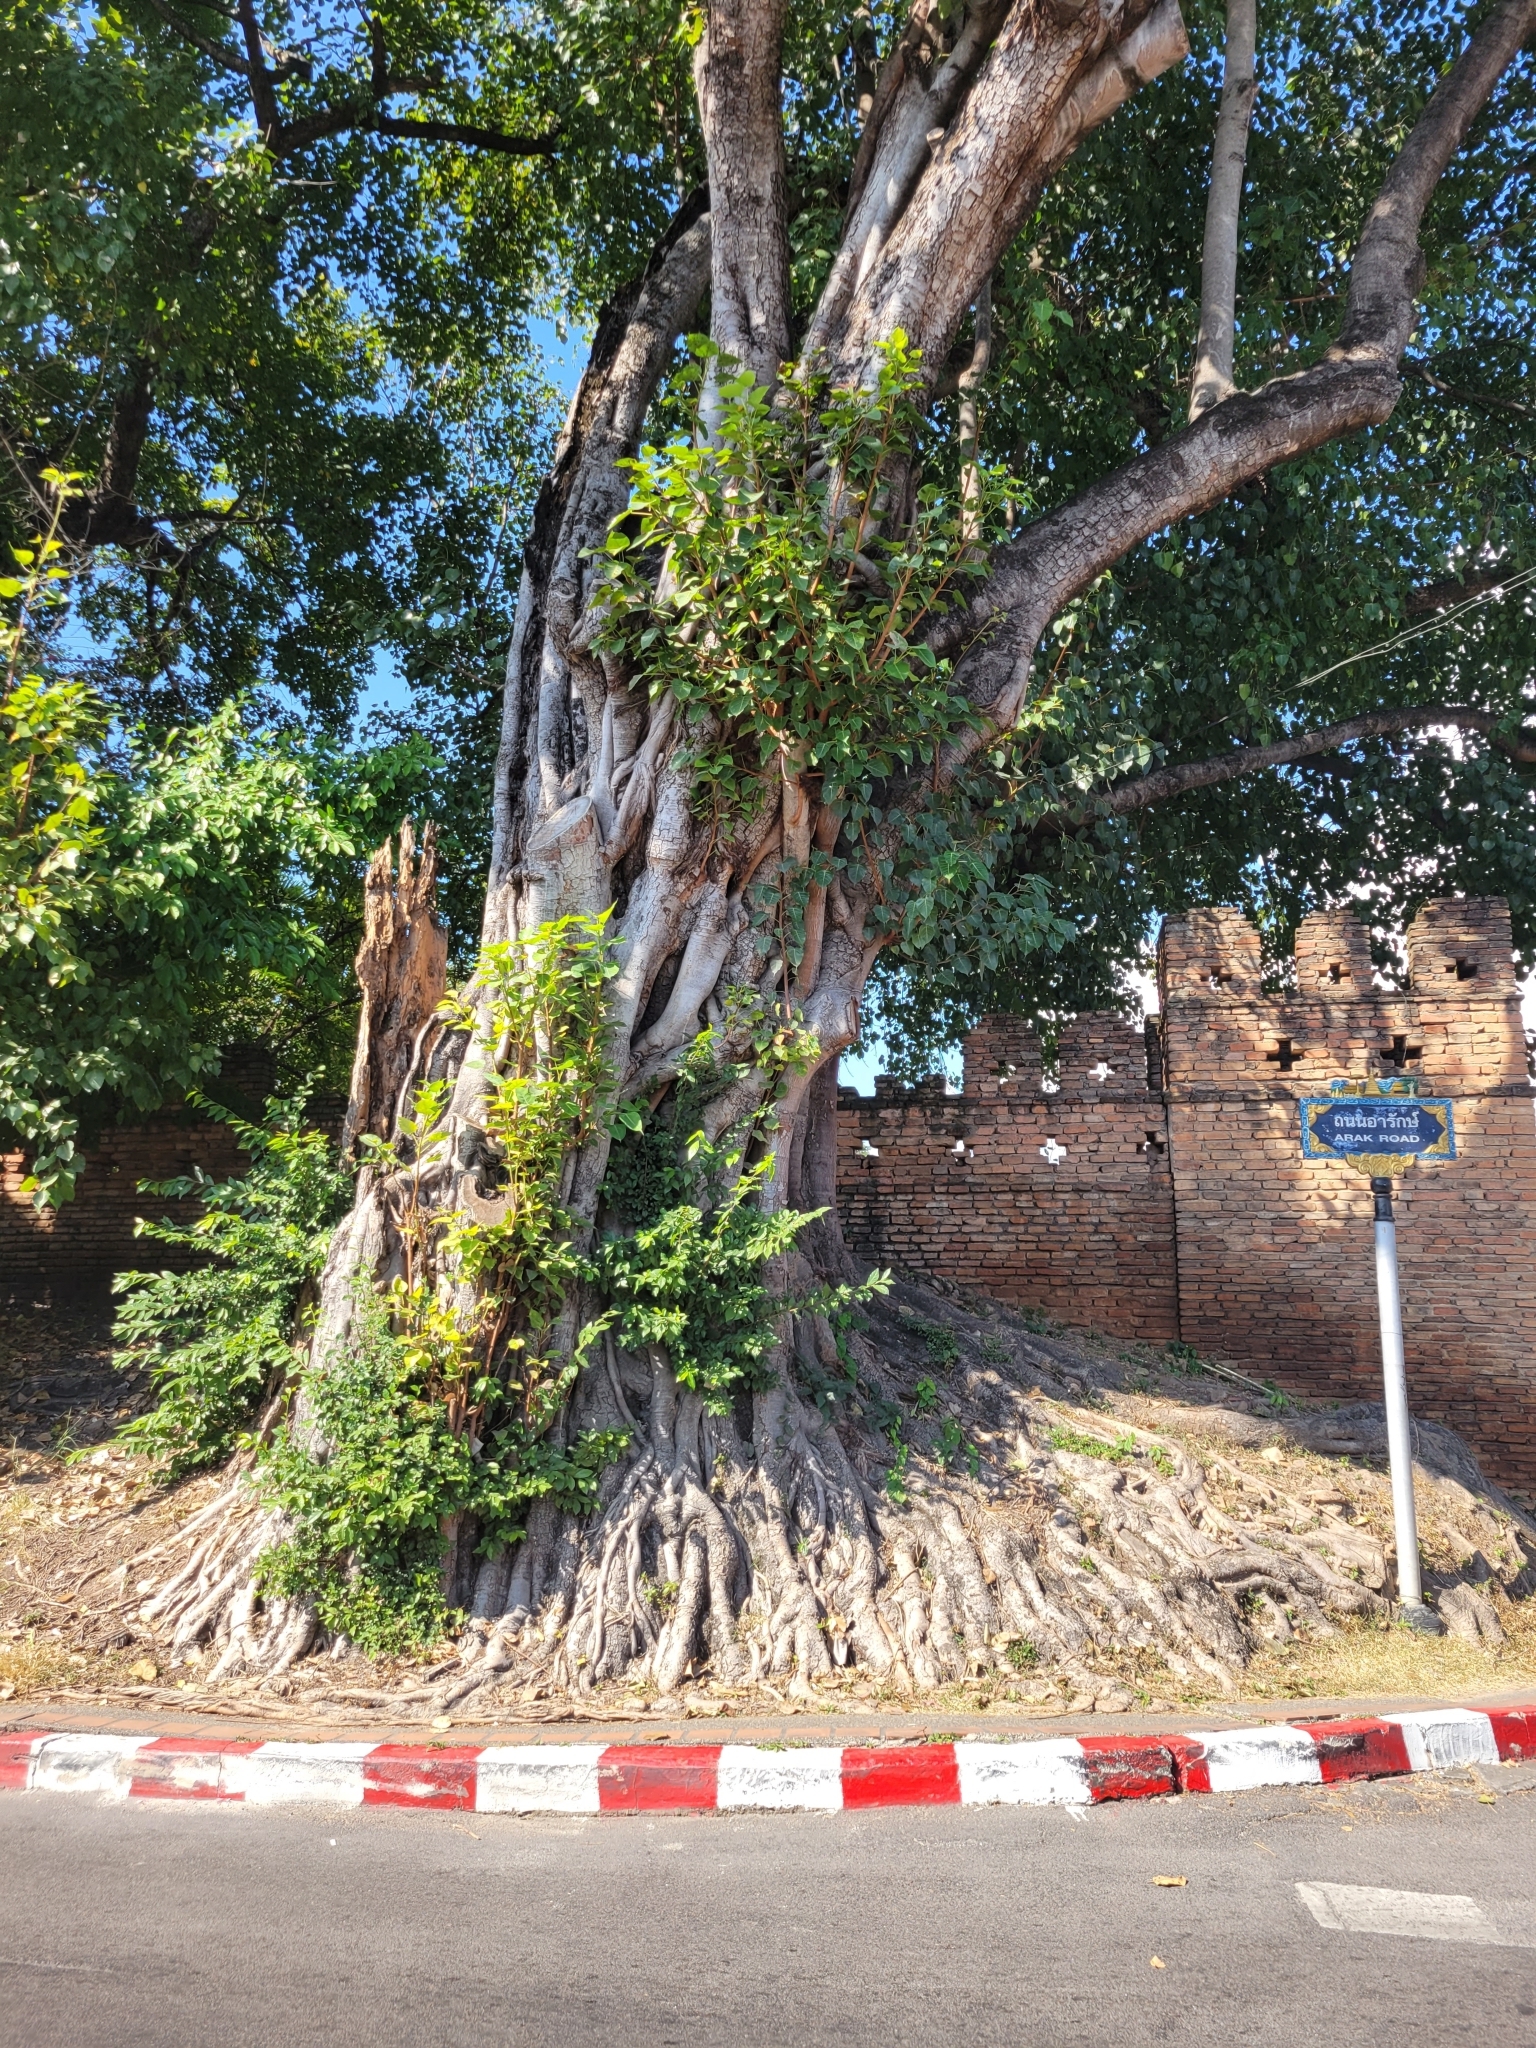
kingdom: Plantae
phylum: Tracheophyta
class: Magnoliopsida
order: Rosales
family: Moraceae
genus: Ficus
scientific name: Ficus religiosa
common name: Bodhi tree
